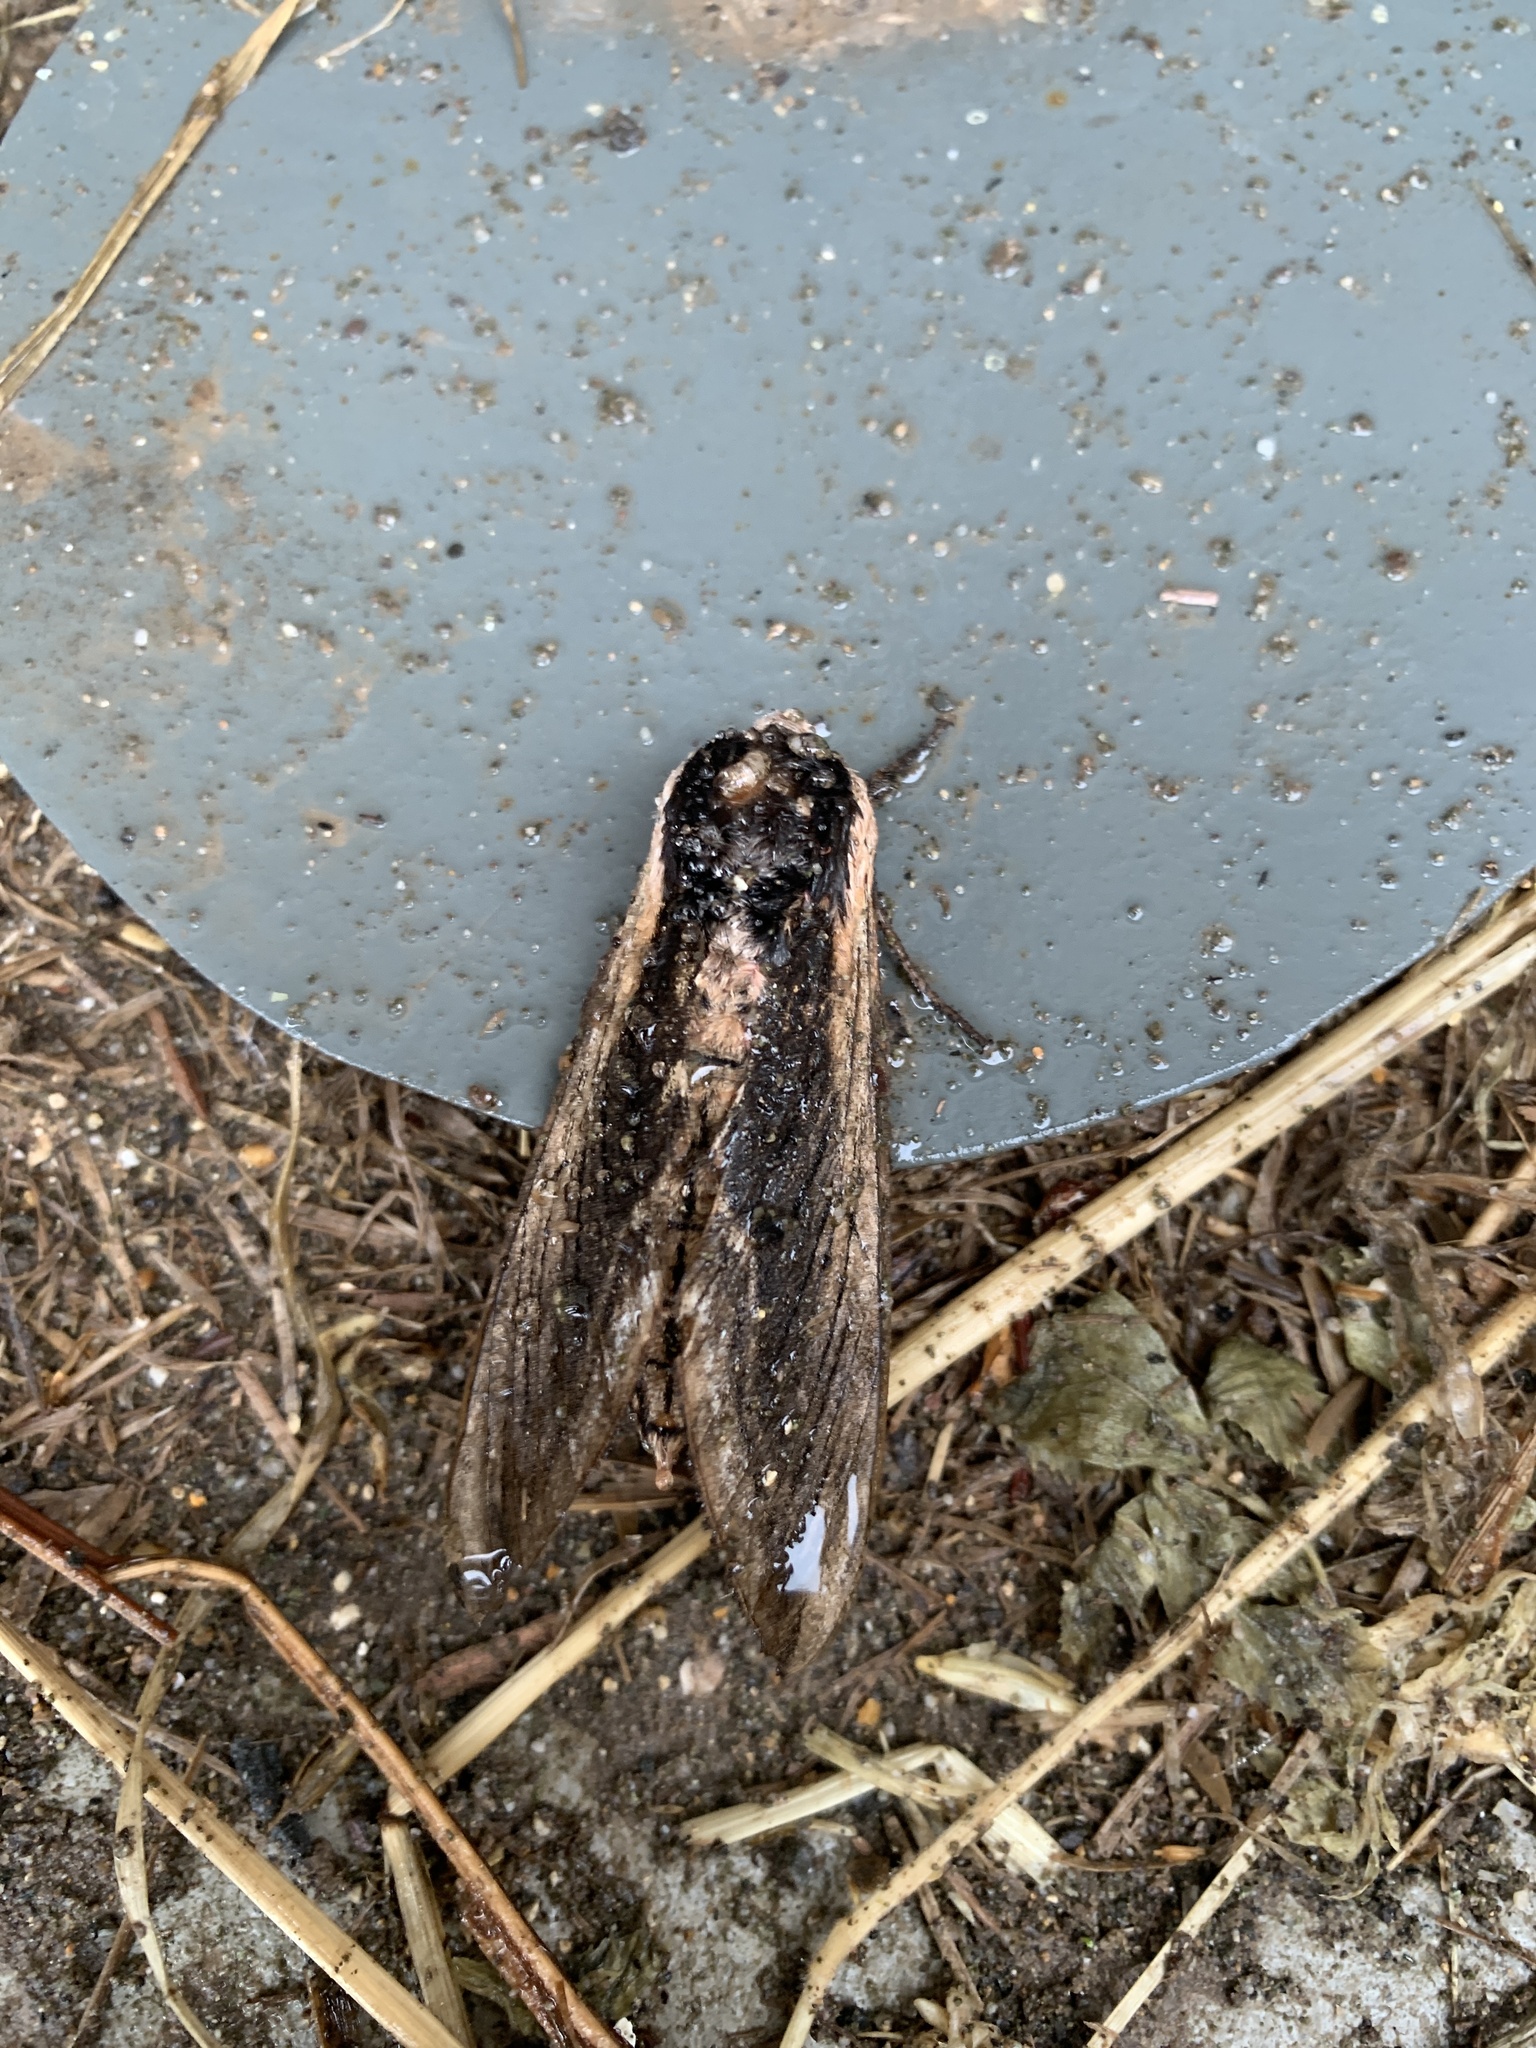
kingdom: Animalia
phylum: Arthropoda
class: Insecta
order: Lepidoptera
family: Sphingidae
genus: Sphinx
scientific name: Sphinx ligustri
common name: Privet hawk-moth
